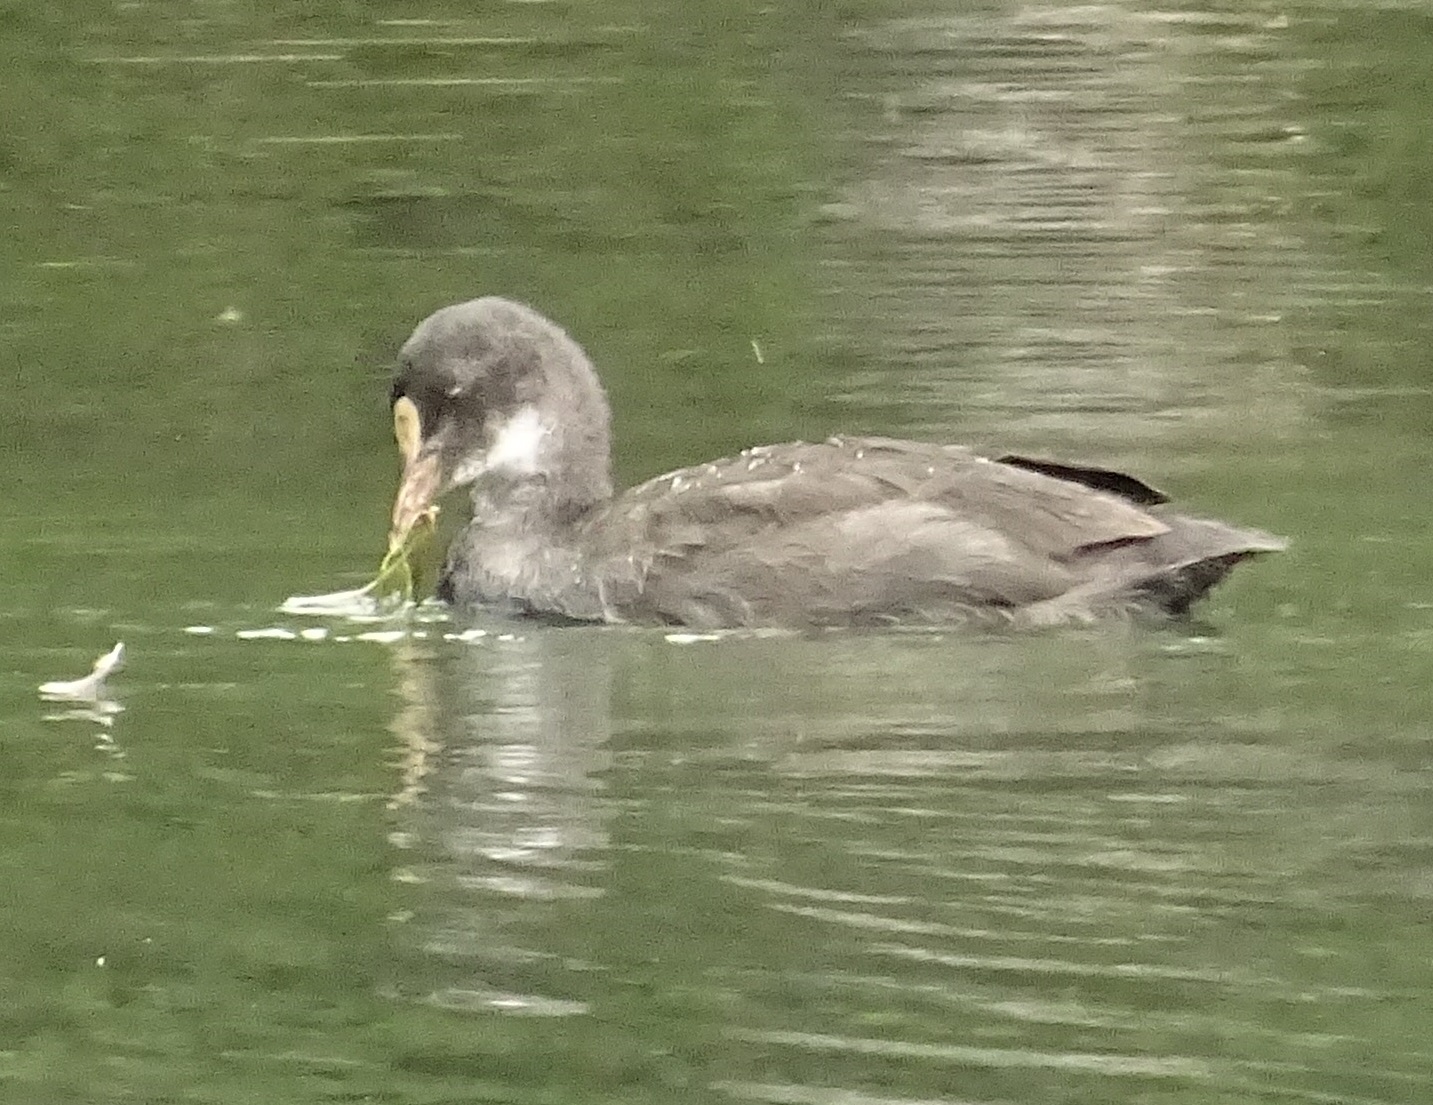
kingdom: Animalia
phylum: Chordata
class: Aves
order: Gruiformes
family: Rallidae
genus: Fulica
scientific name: Fulica atra
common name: Eurasian coot
